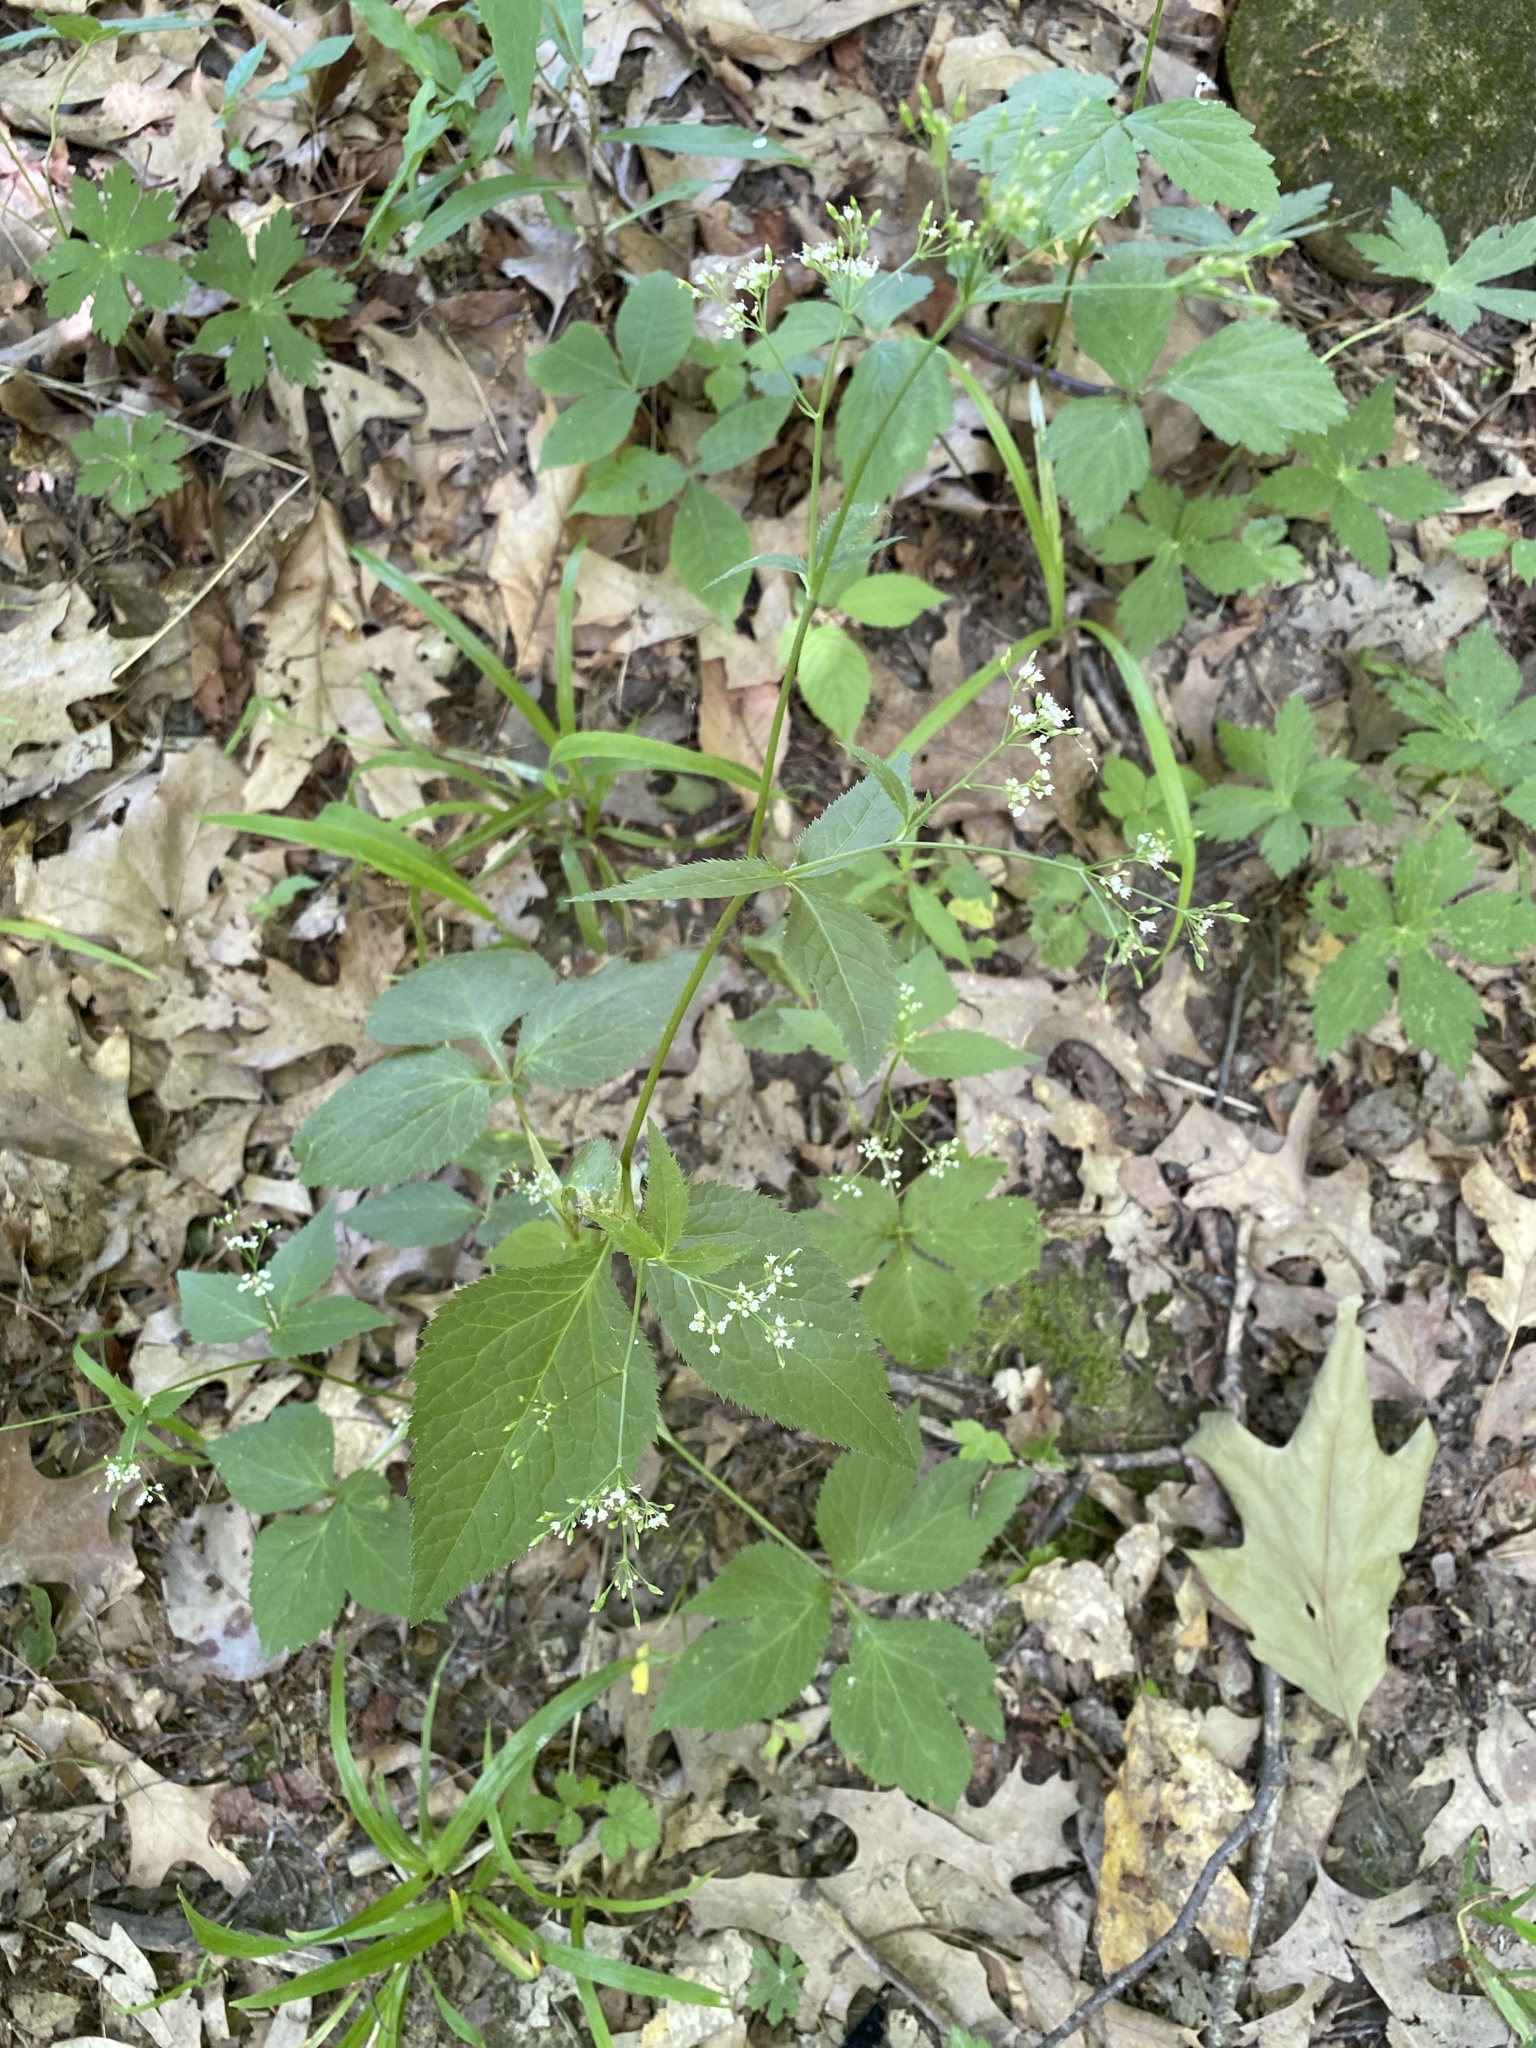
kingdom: Plantae
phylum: Tracheophyta
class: Magnoliopsida
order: Apiales
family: Apiaceae
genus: Cryptotaenia
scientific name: Cryptotaenia canadensis
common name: Honewort
